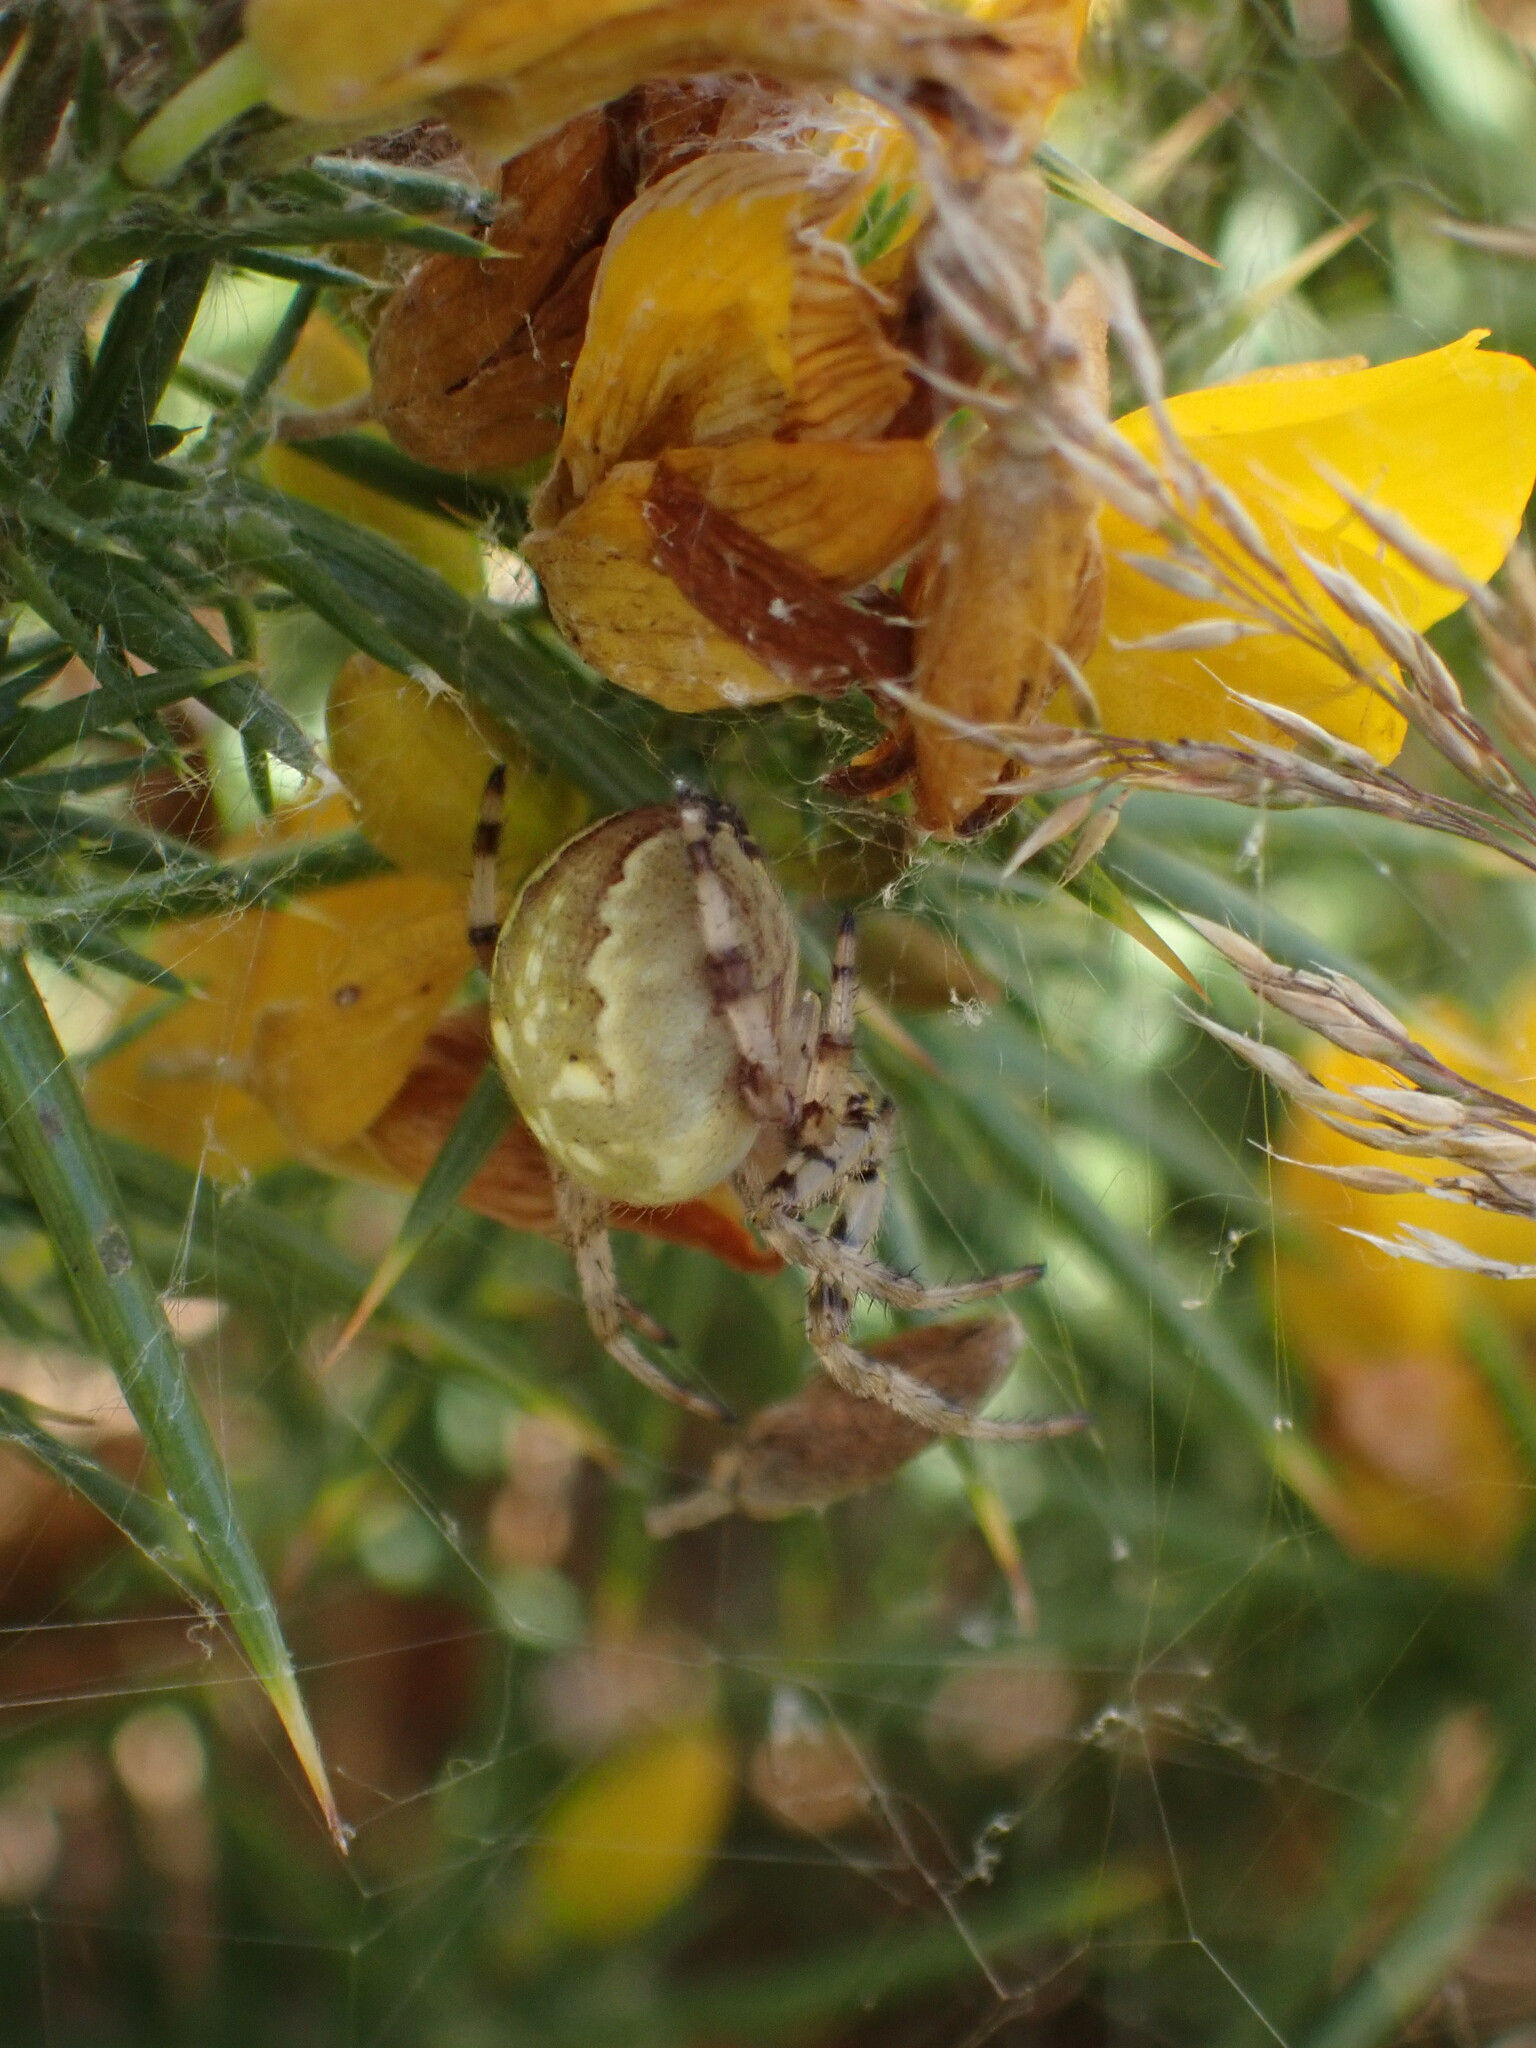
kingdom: Animalia
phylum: Arthropoda
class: Arachnida
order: Araneae
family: Araneidae
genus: Araneus
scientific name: Araneus quadratus
